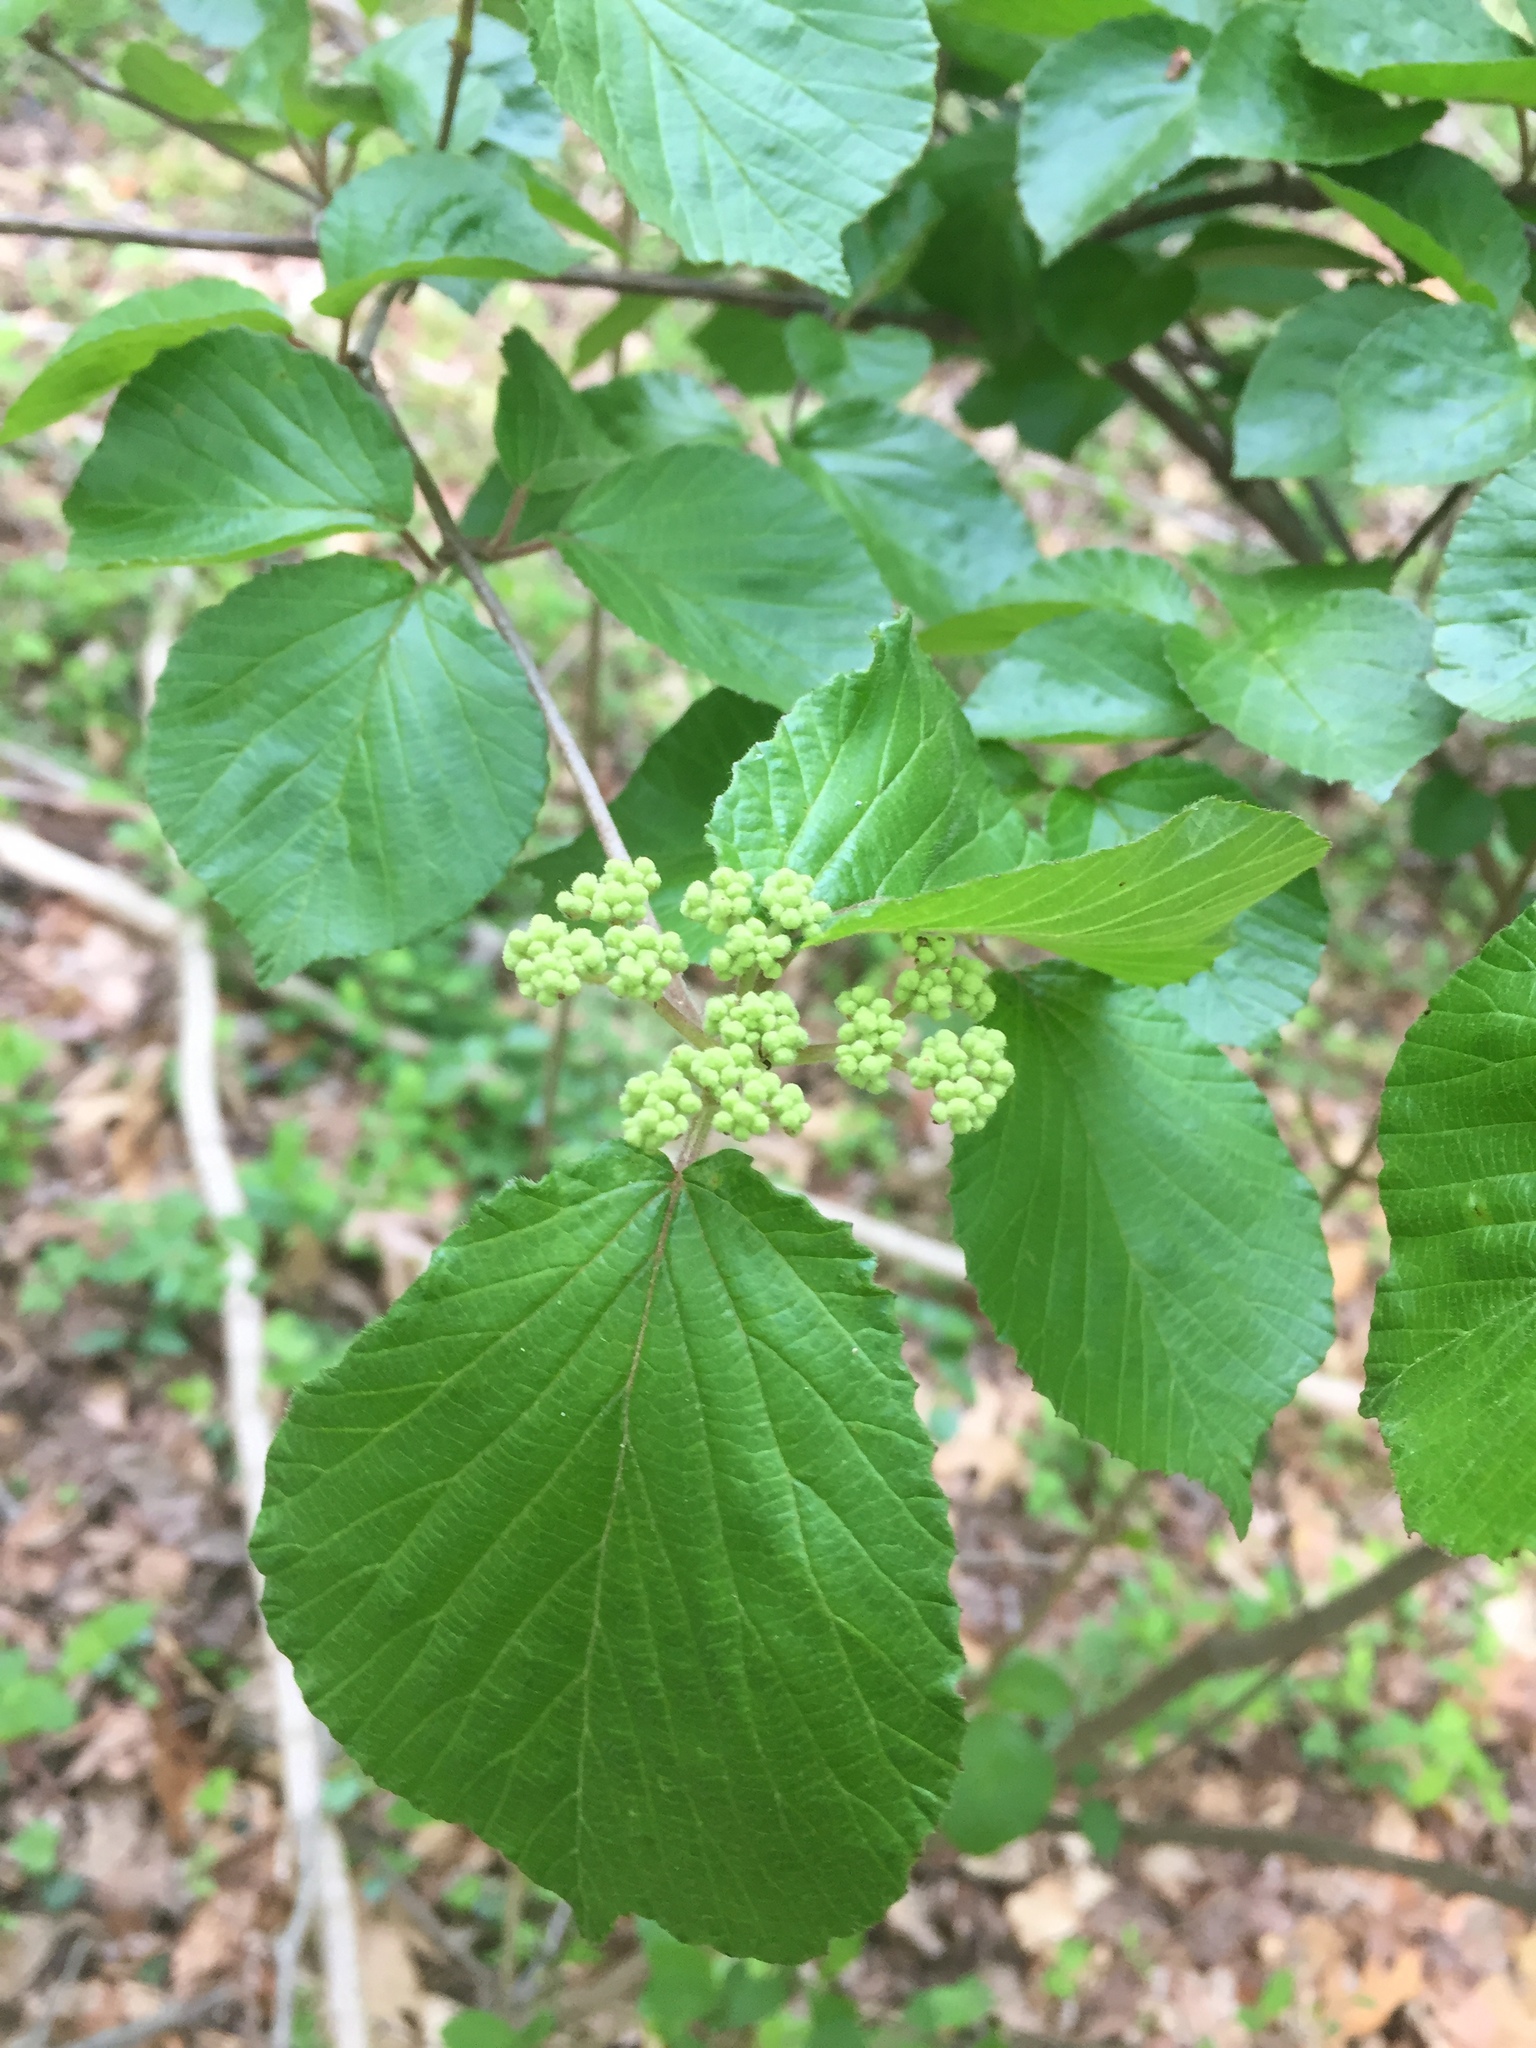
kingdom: Plantae
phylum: Tracheophyta
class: Magnoliopsida
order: Dipsacales
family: Viburnaceae
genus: Viburnum
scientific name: Viburnum dilatatum
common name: Linden arrowwood
